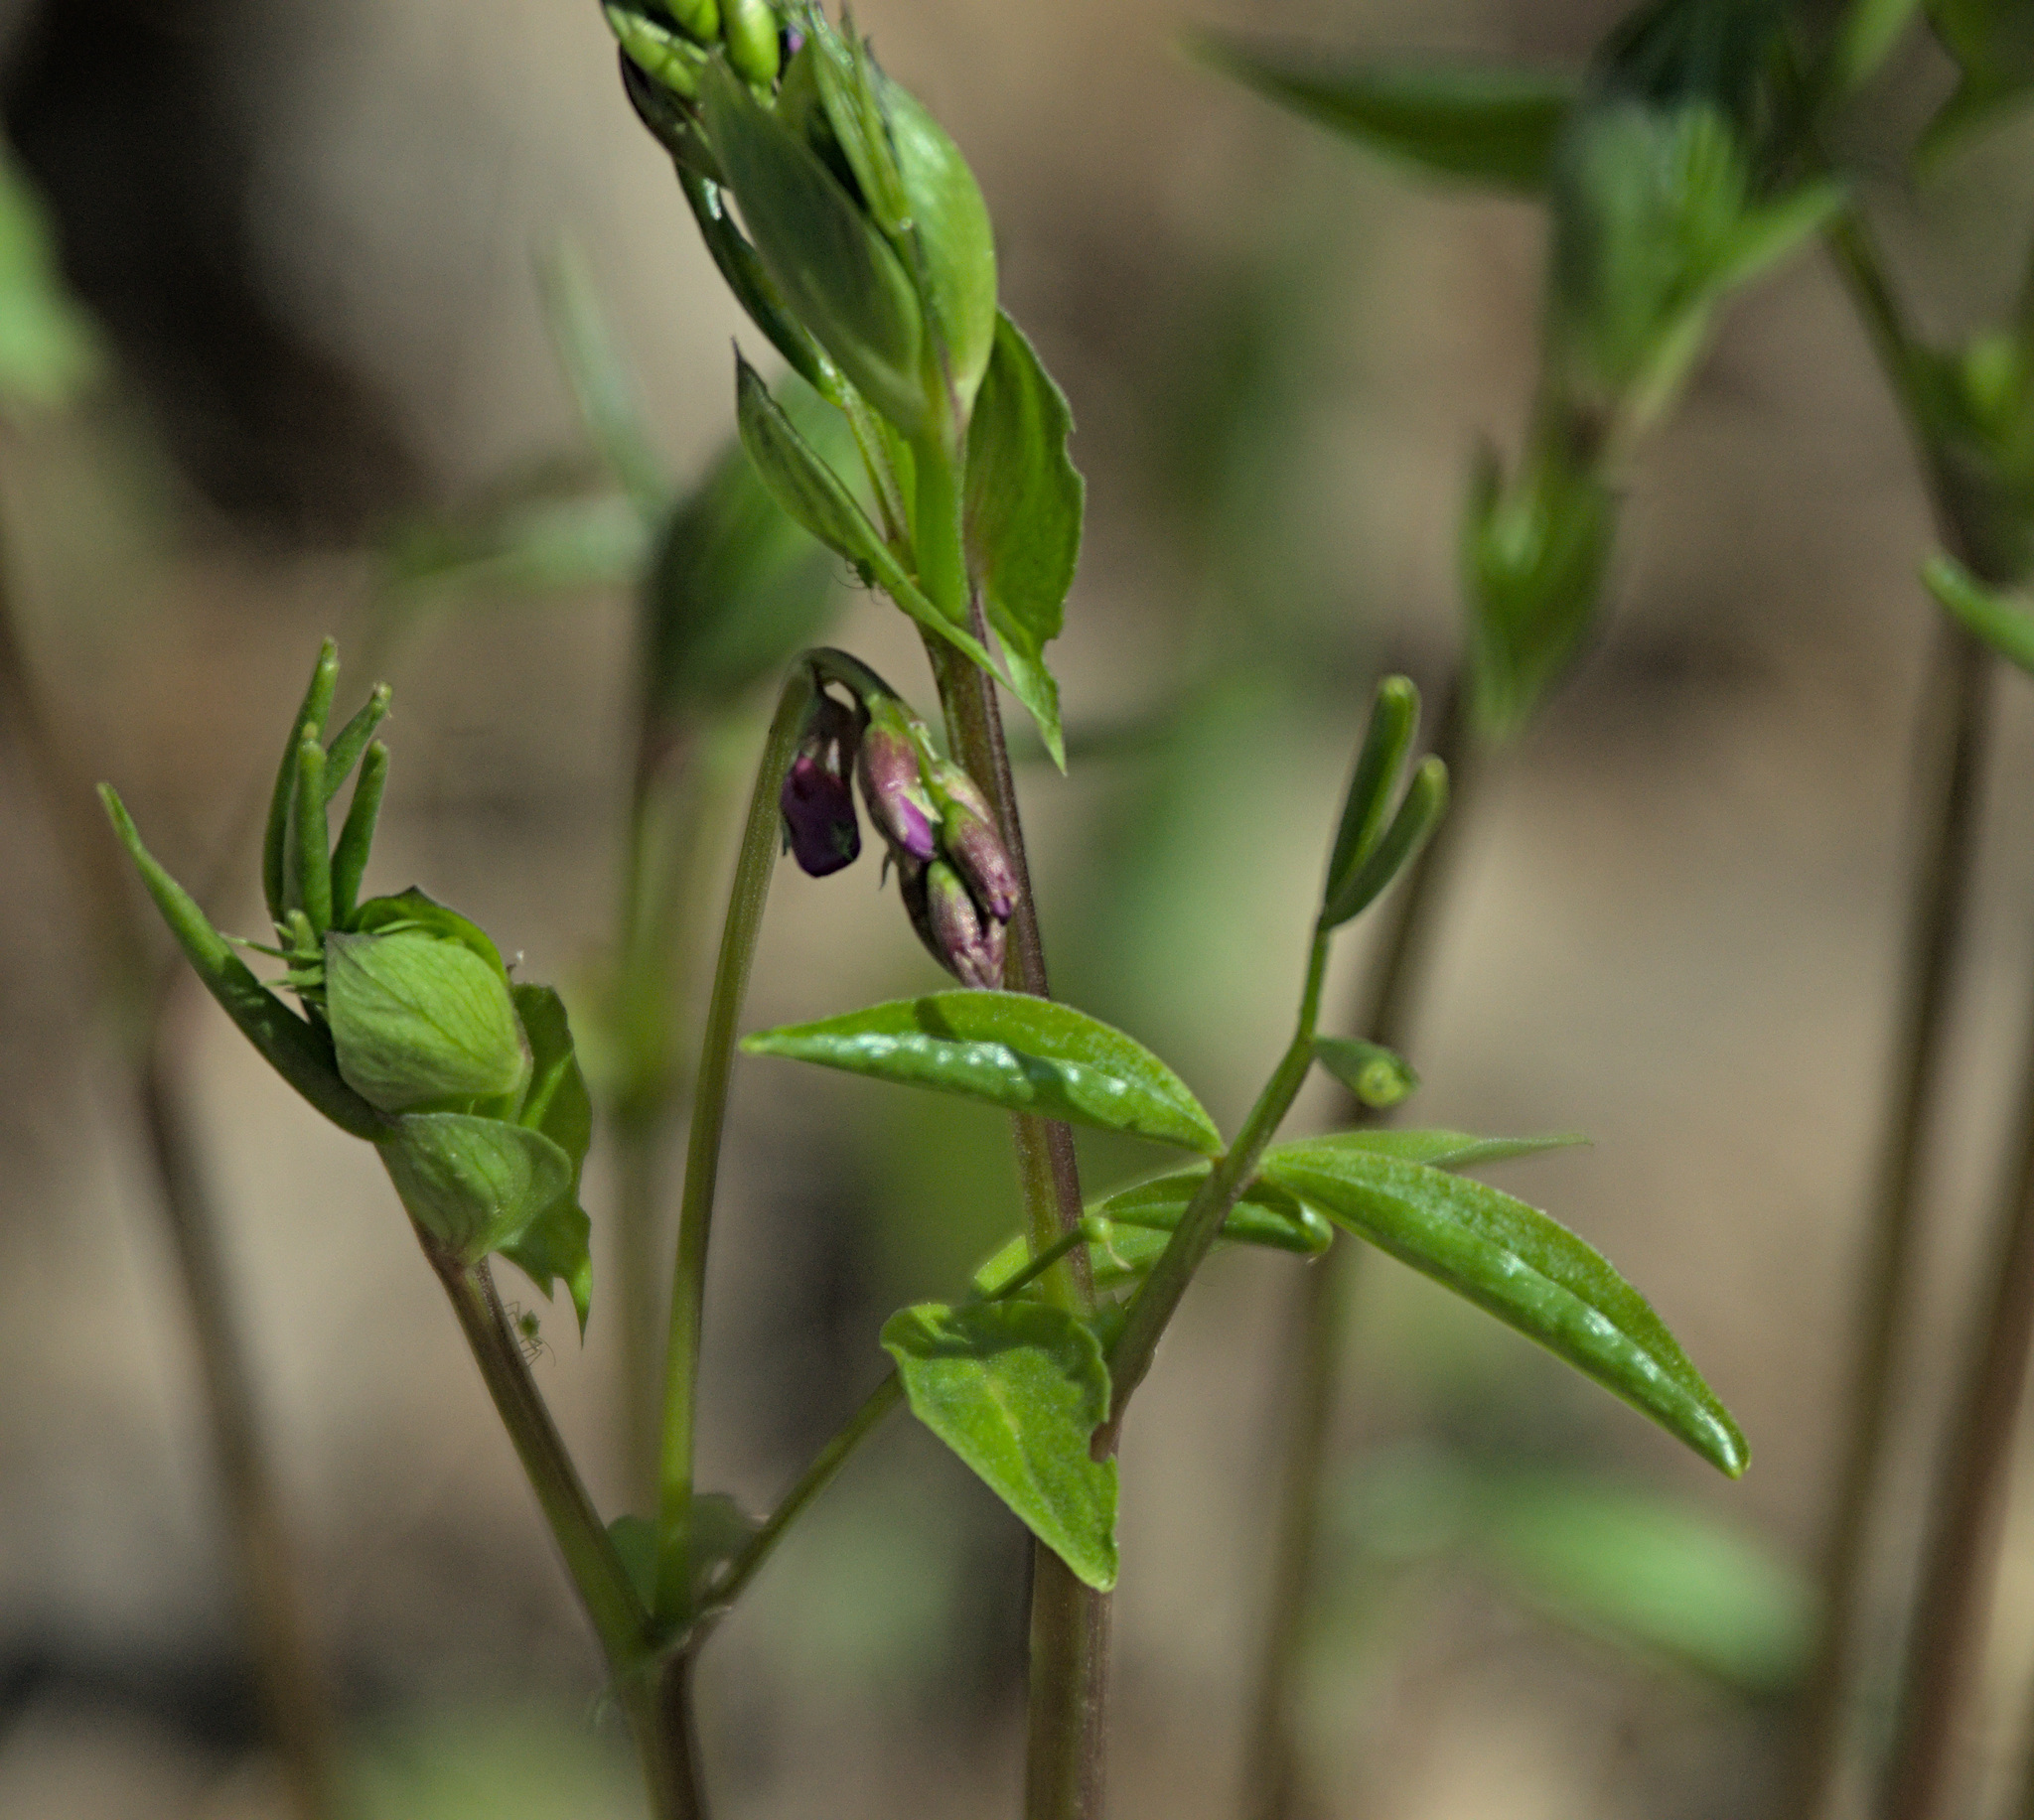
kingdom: Plantae
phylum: Tracheophyta
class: Magnoliopsida
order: Fabales
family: Fabaceae
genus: Lathyrus
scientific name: Lathyrus vernus
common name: Spring pea
